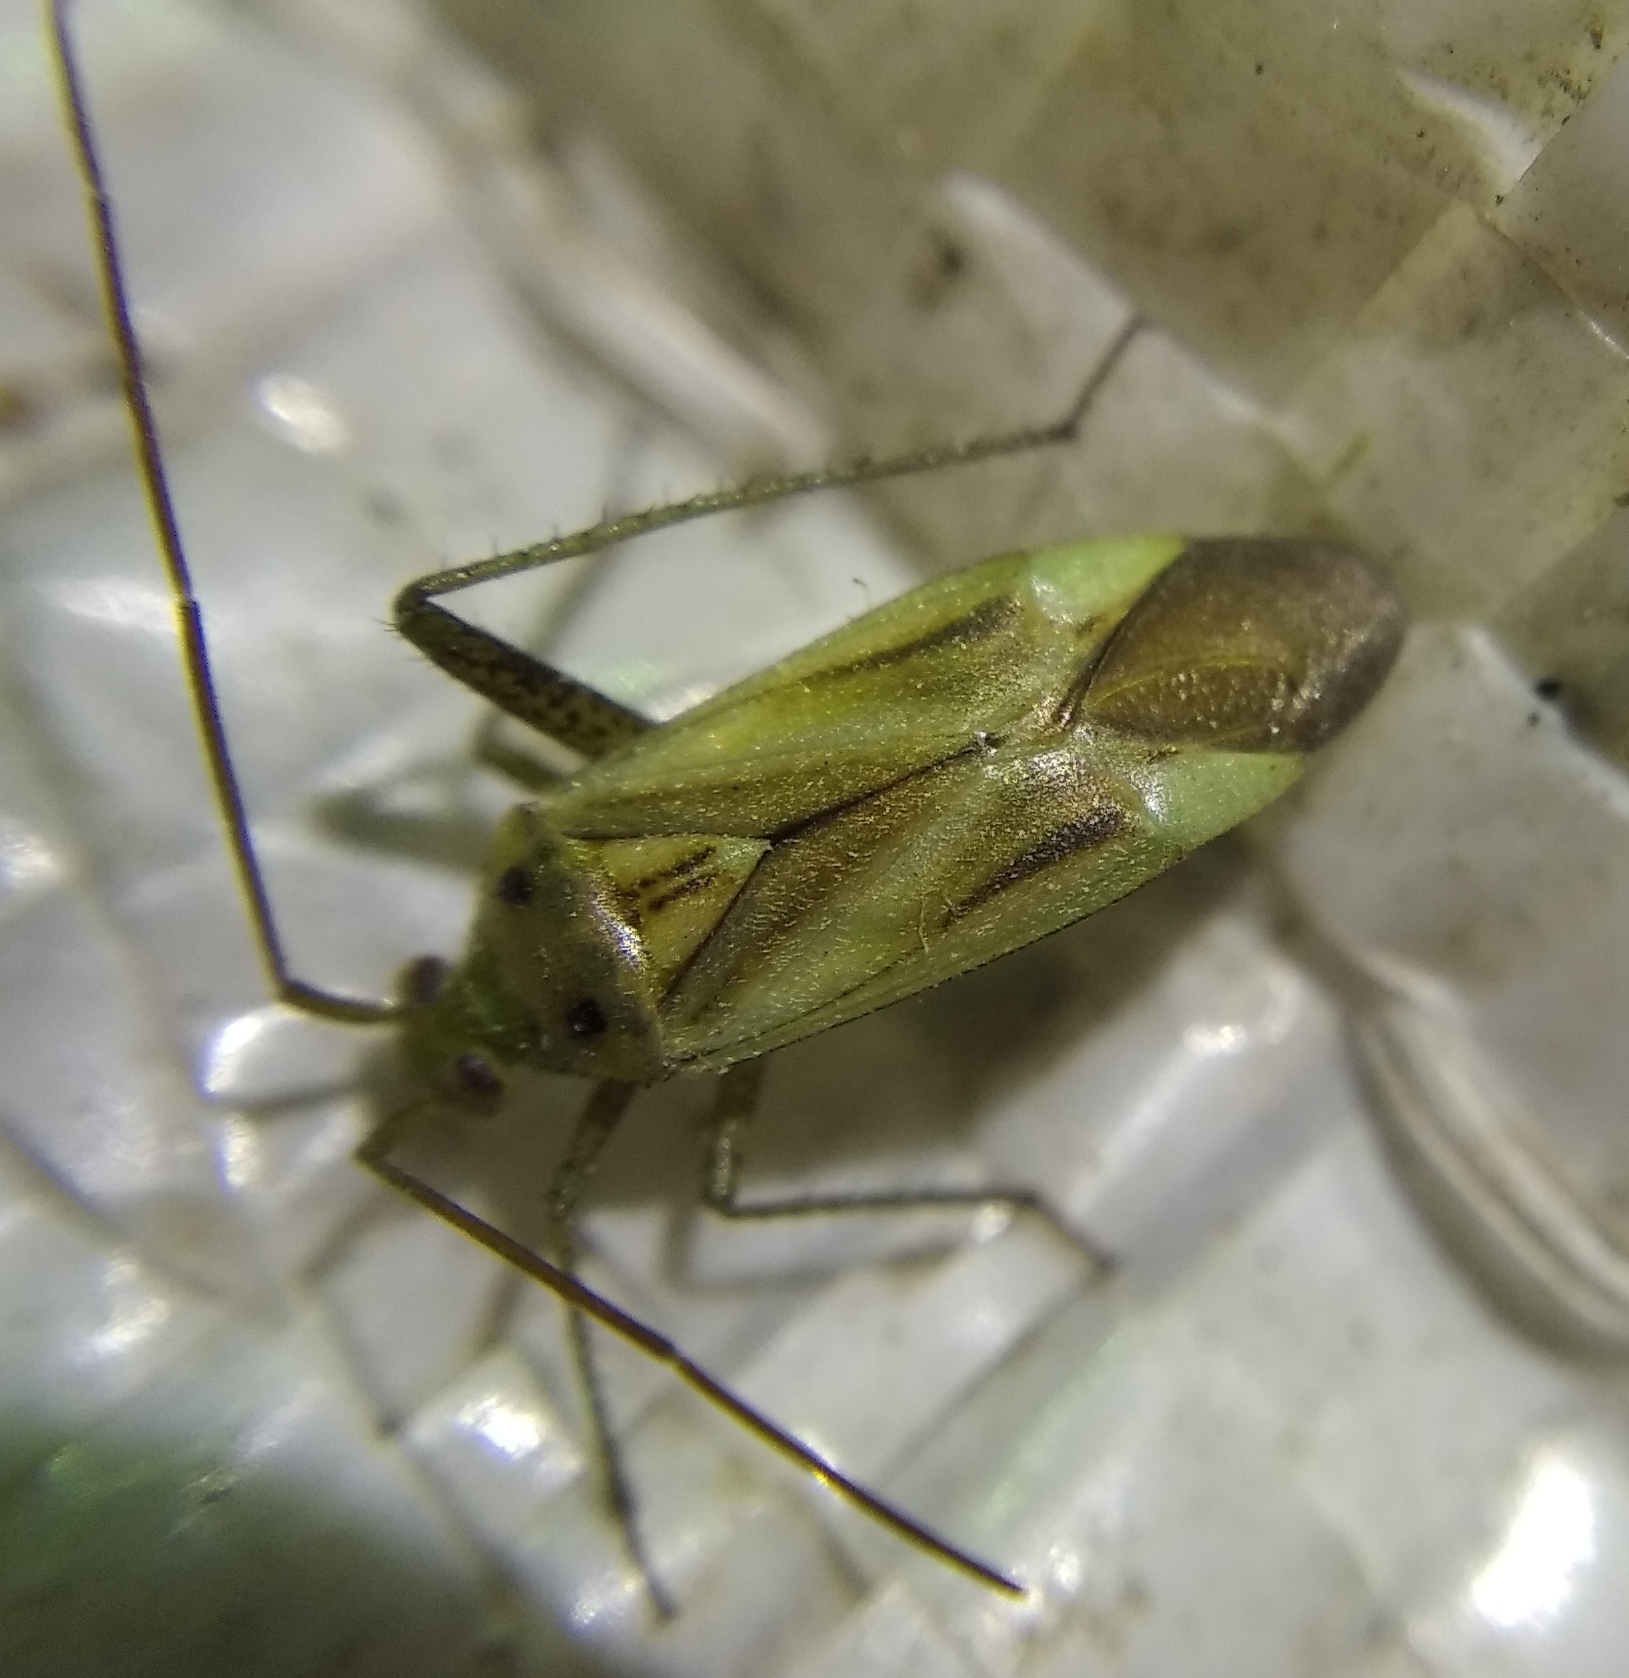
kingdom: Animalia
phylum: Arthropoda
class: Insecta
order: Hemiptera
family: Miridae
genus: Adelphocoris
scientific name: Adelphocoris lineolatus
